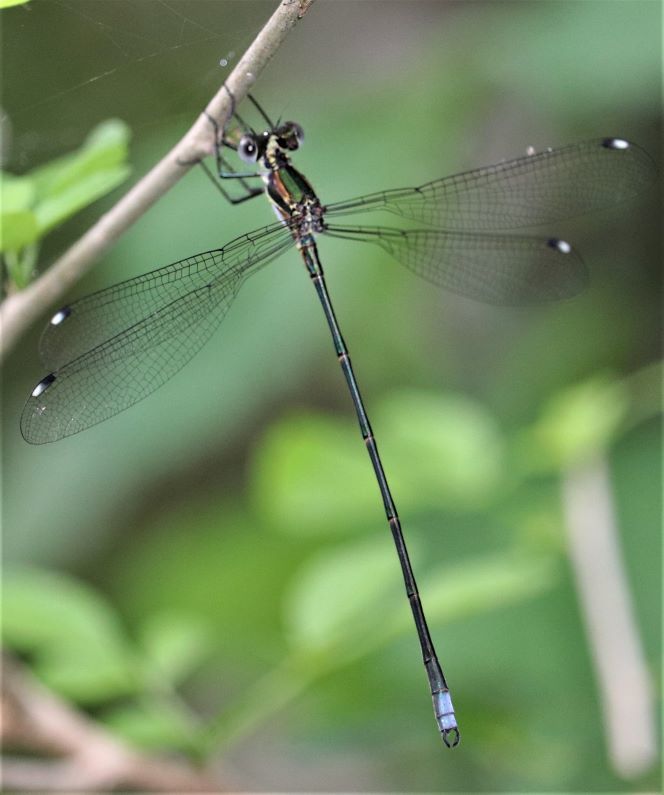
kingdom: Animalia
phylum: Arthropoda
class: Insecta
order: Odonata
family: Synlestidae
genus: Chlorolestes
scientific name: Chlorolestes tessellatus
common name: Forest malachite
